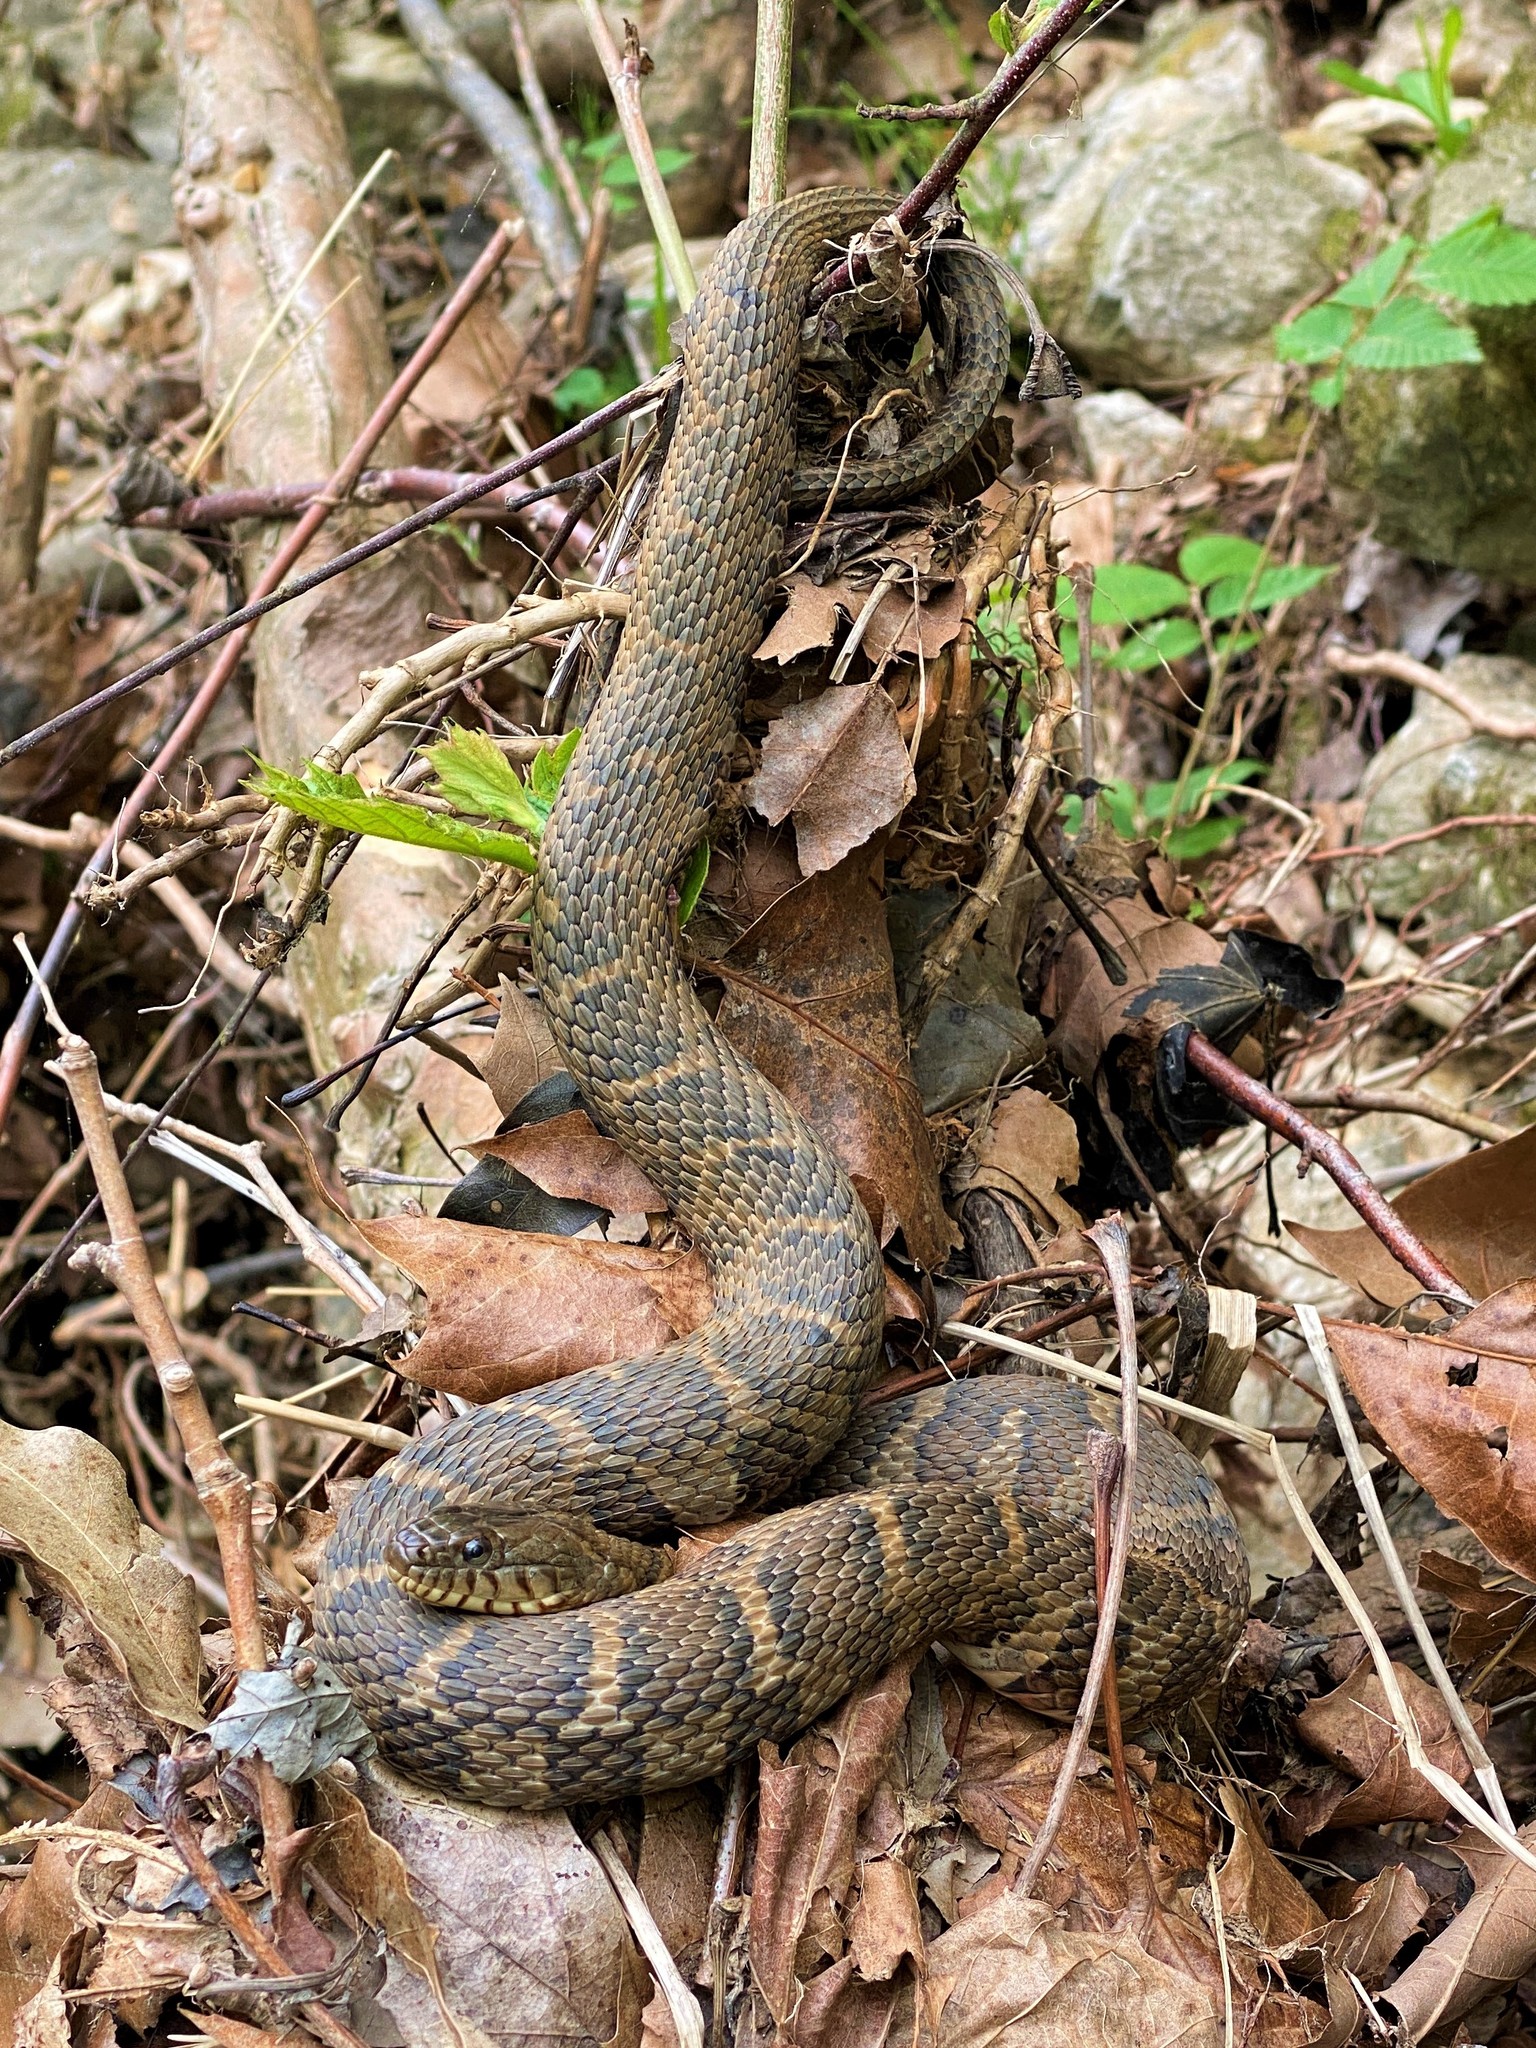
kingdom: Animalia
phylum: Chordata
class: Squamata
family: Colubridae
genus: Nerodia
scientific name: Nerodia sipedon
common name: Northern water snake
